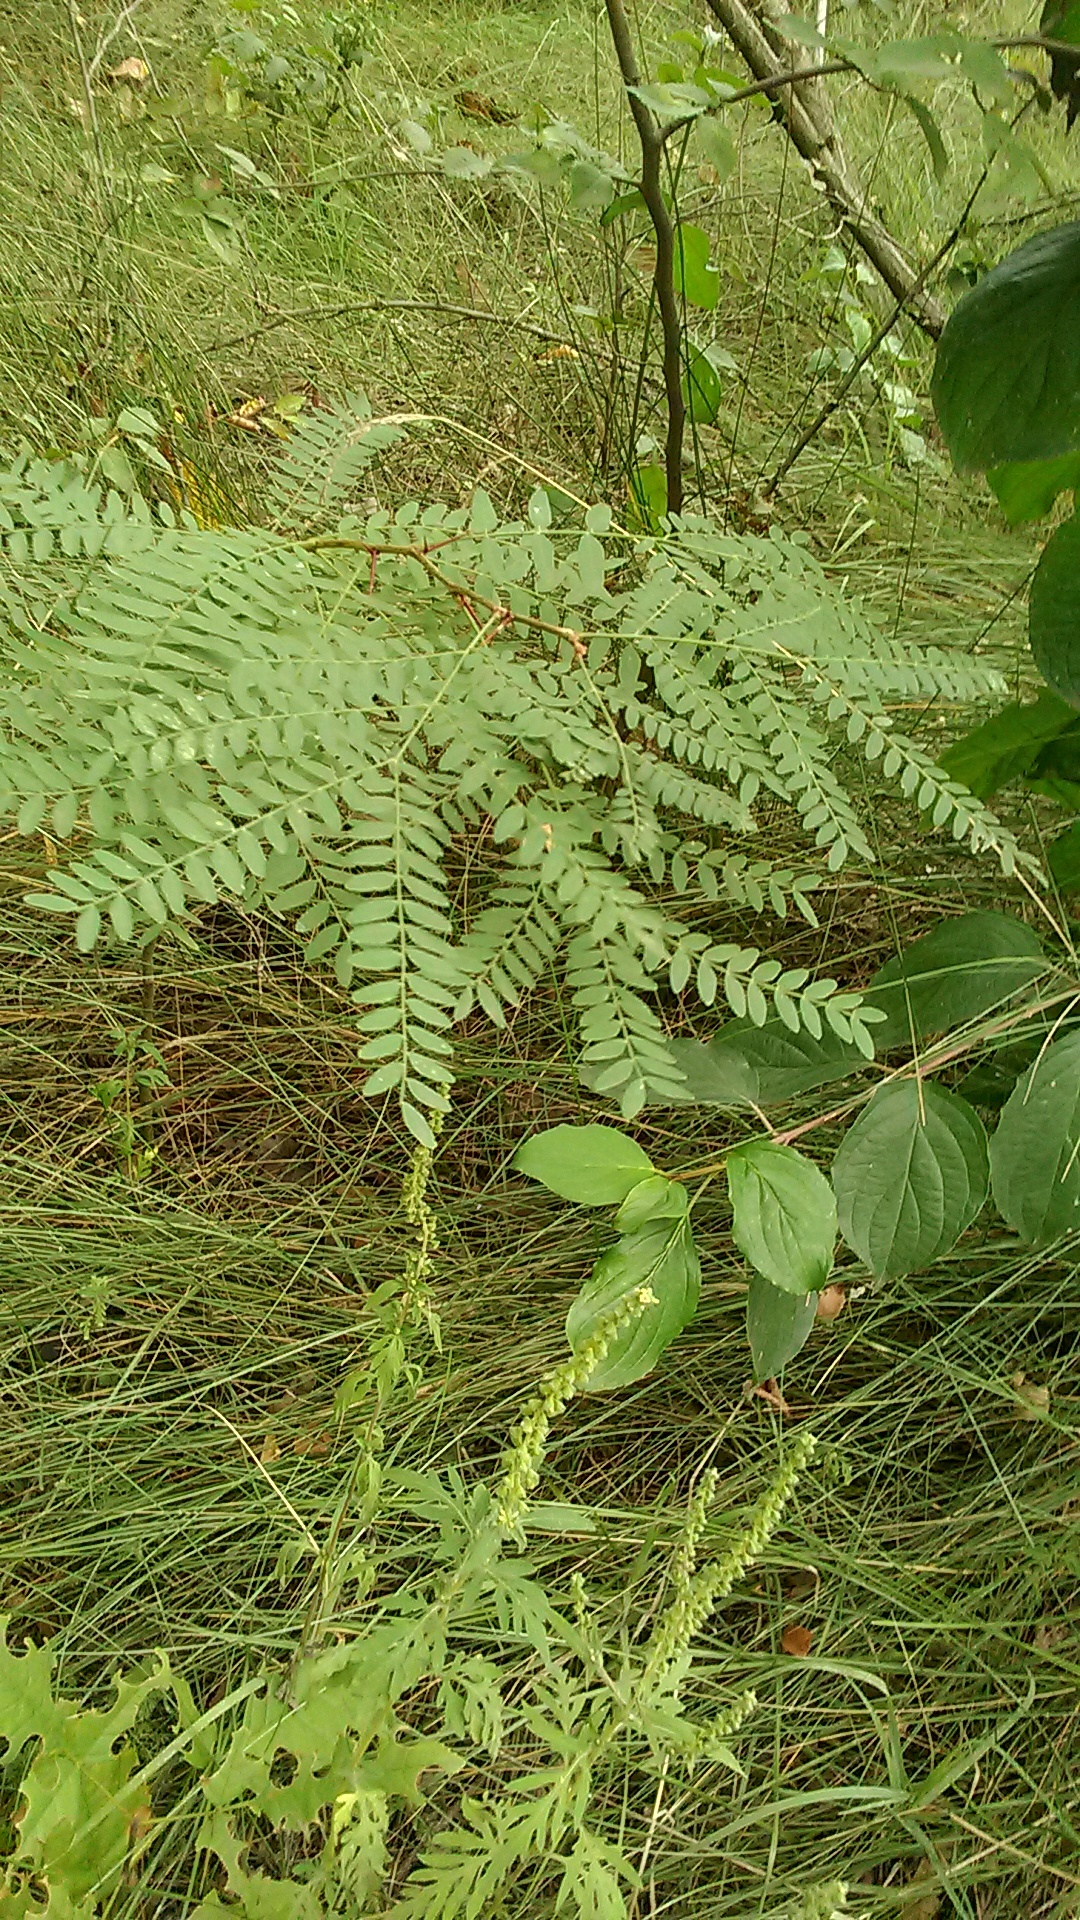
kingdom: Plantae
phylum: Tracheophyta
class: Magnoliopsida
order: Fabales
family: Fabaceae
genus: Gleditsia
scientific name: Gleditsia triacanthos
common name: Common honeylocust
